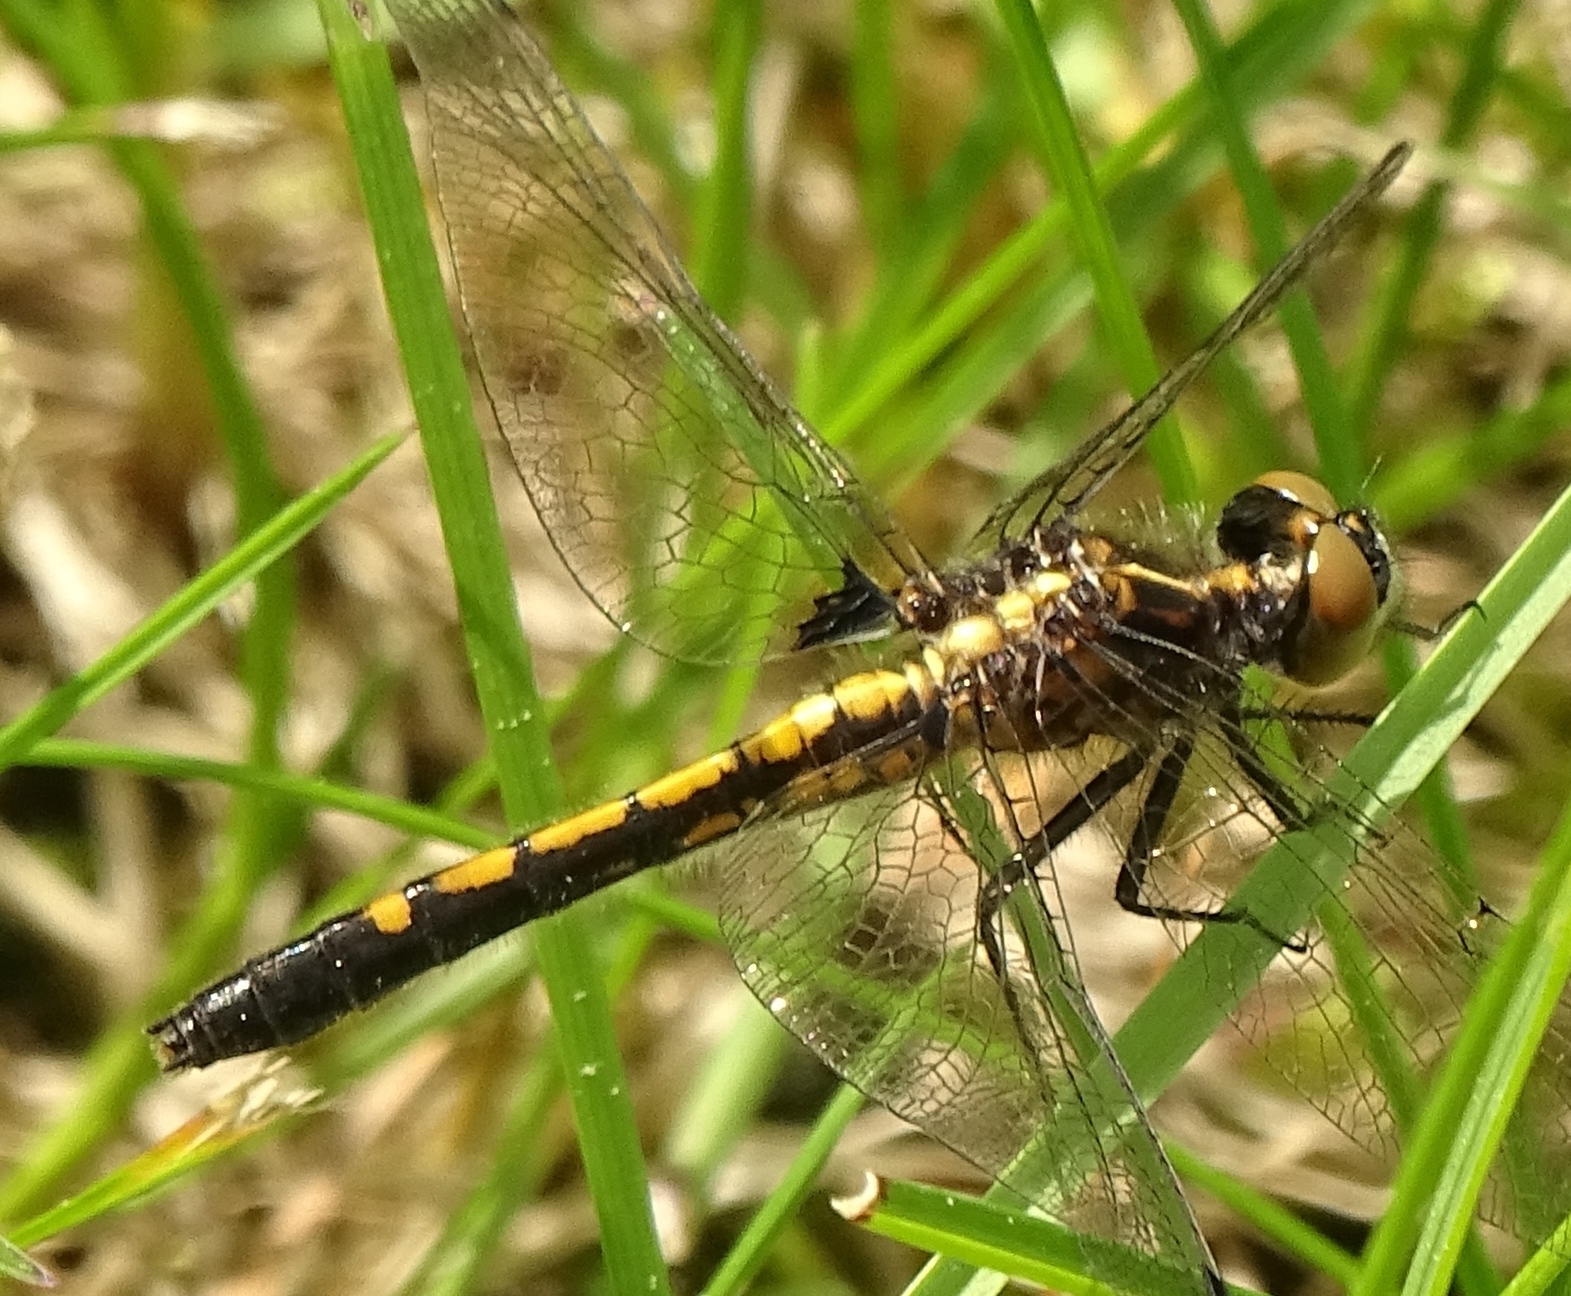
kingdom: Animalia
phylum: Arthropoda
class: Insecta
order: Odonata
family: Libellulidae
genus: Leucorrhinia
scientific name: Leucorrhinia intacta
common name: Dot-tailed whiteface
